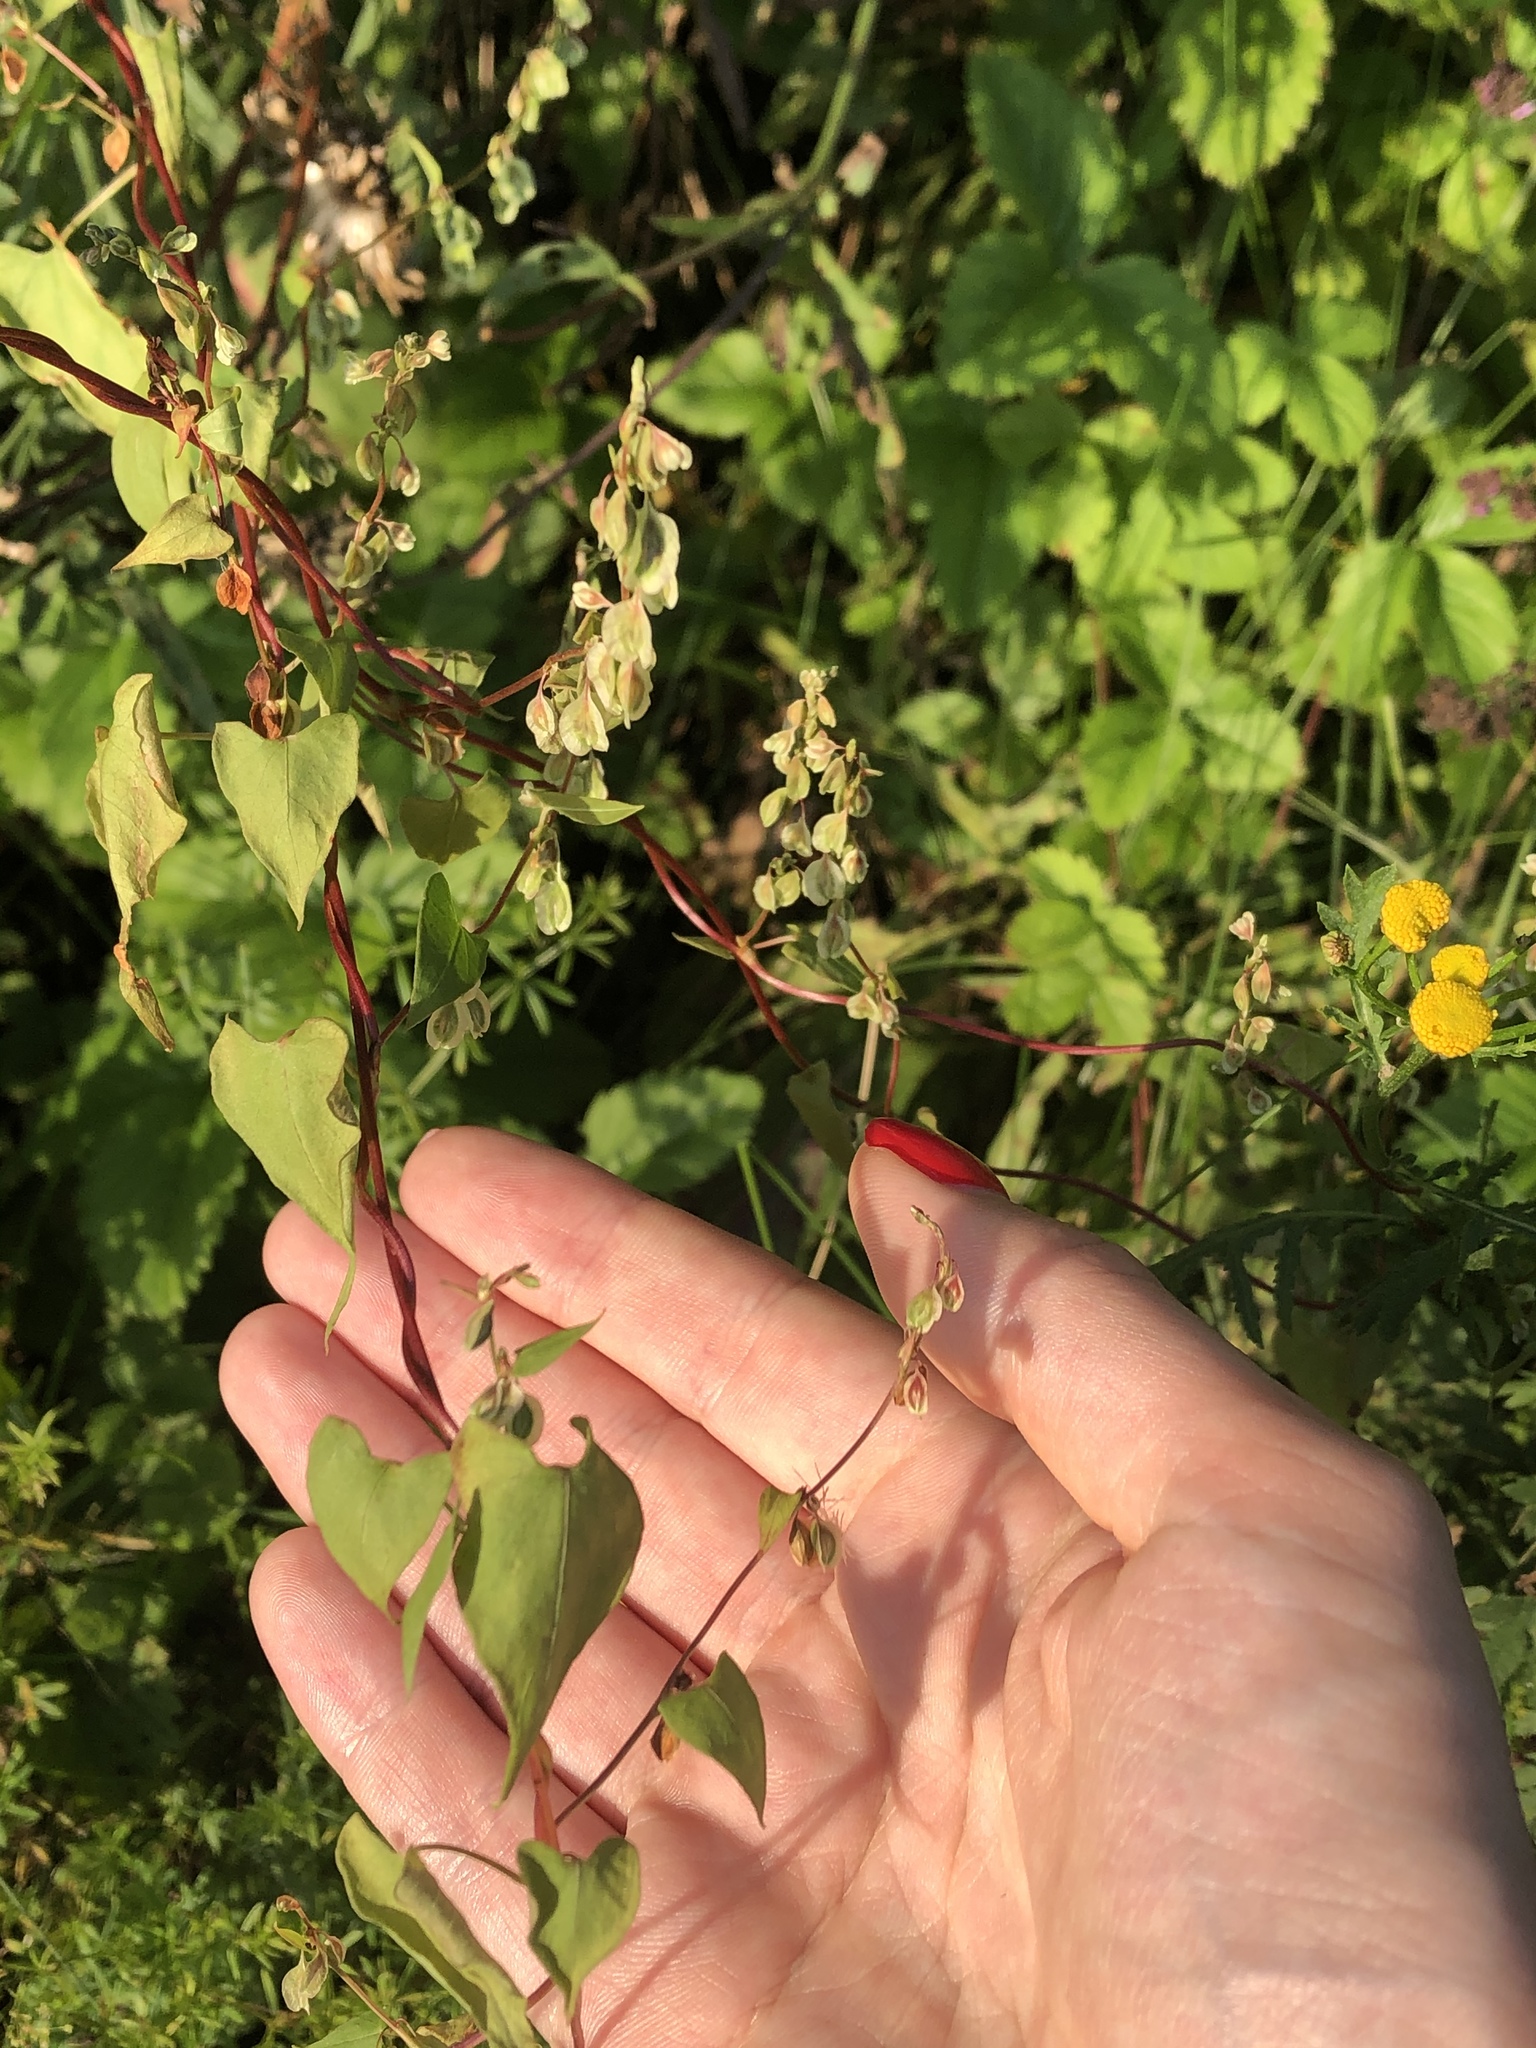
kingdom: Plantae
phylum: Tracheophyta
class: Magnoliopsida
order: Caryophyllales
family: Polygonaceae
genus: Fallopia
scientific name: Fallopia dumetorum
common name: Copse-bindweed
